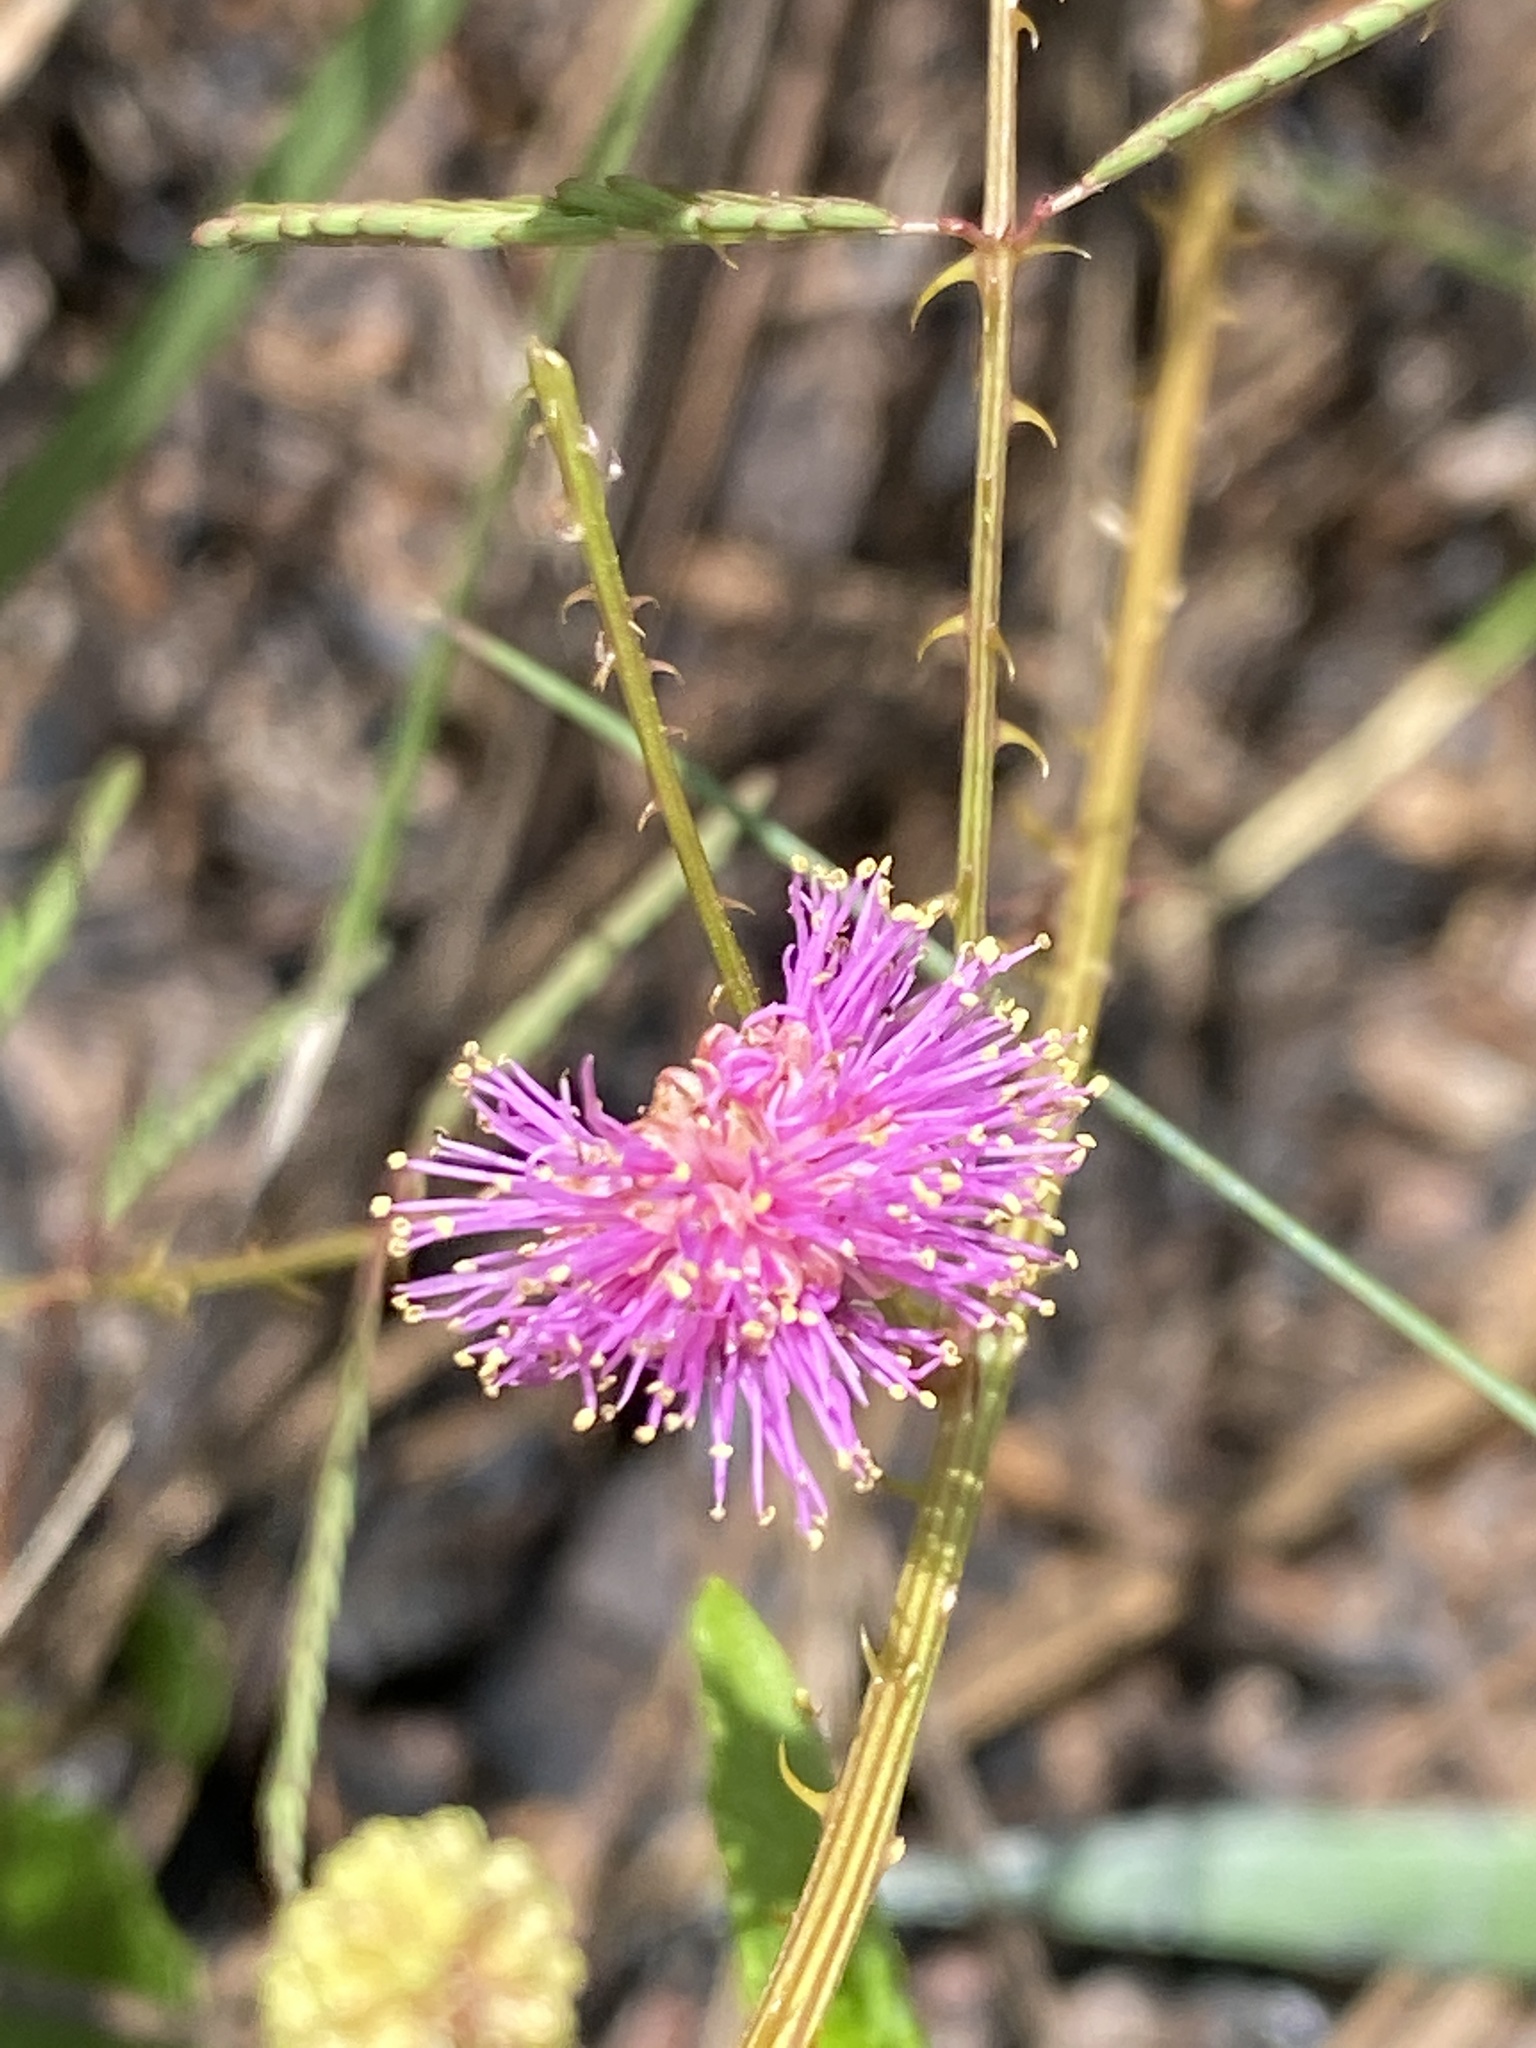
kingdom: Plantae
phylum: Tracheophyta
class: Magnoliopsida
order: Fabales
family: Fabaceae
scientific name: Fabaceae
